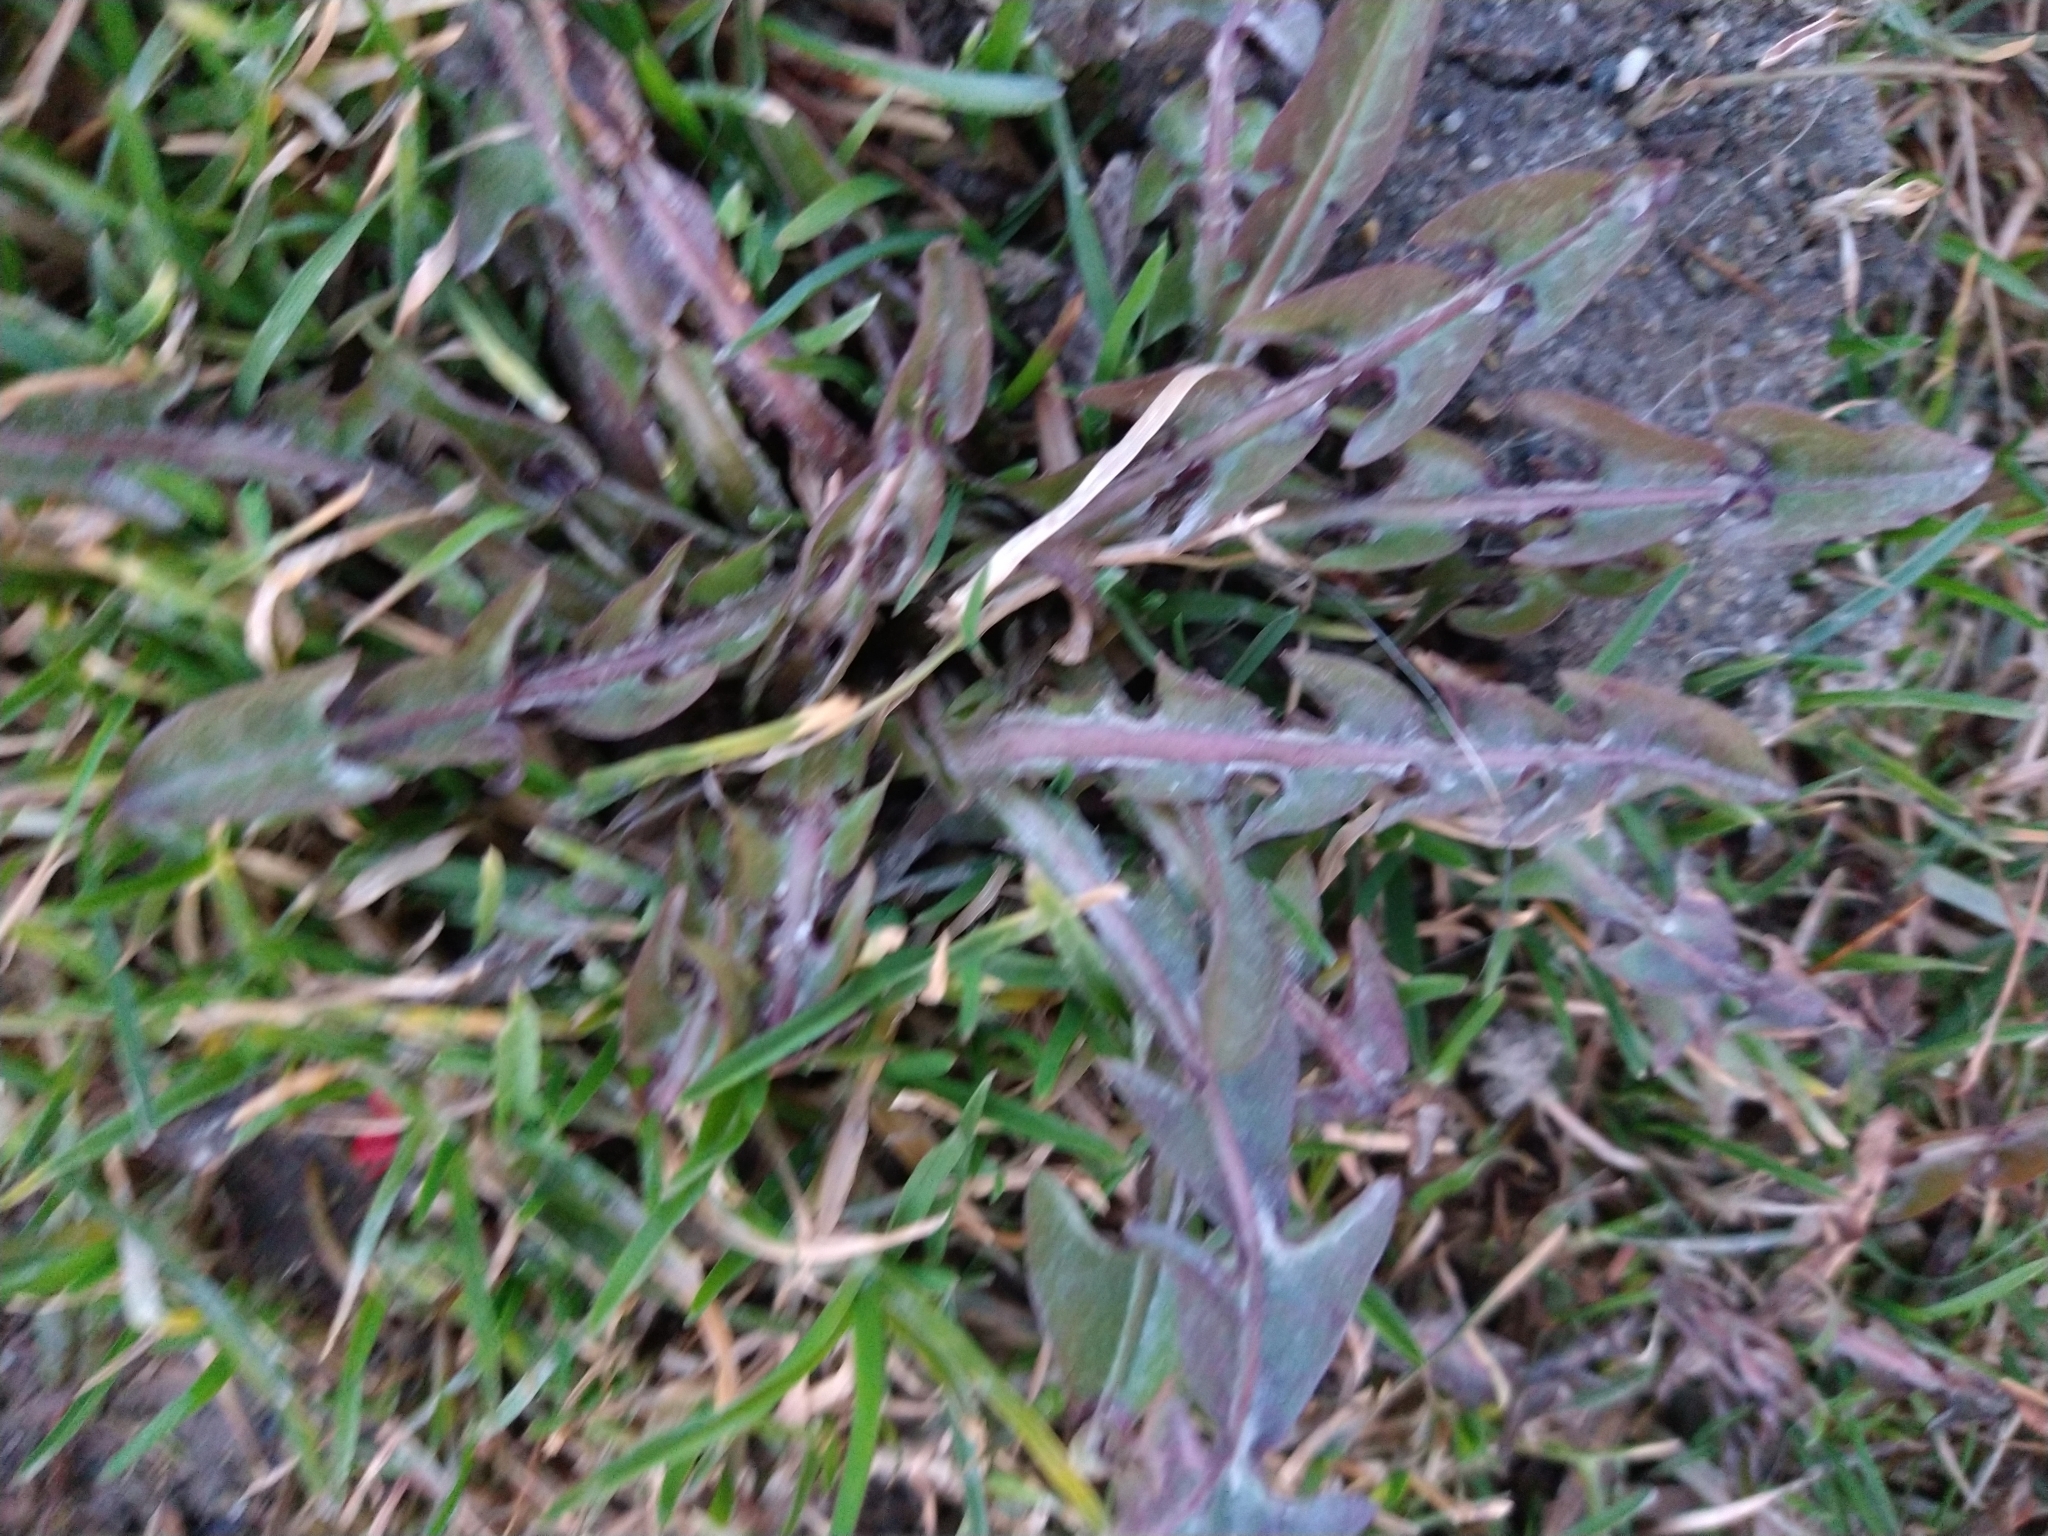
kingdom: Plantae
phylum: Tracheophyta
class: Magnoliopsida
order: Asterales
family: Asteraceae
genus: Taraxacum
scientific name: Taraxacum officinale
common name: Common dandelion
